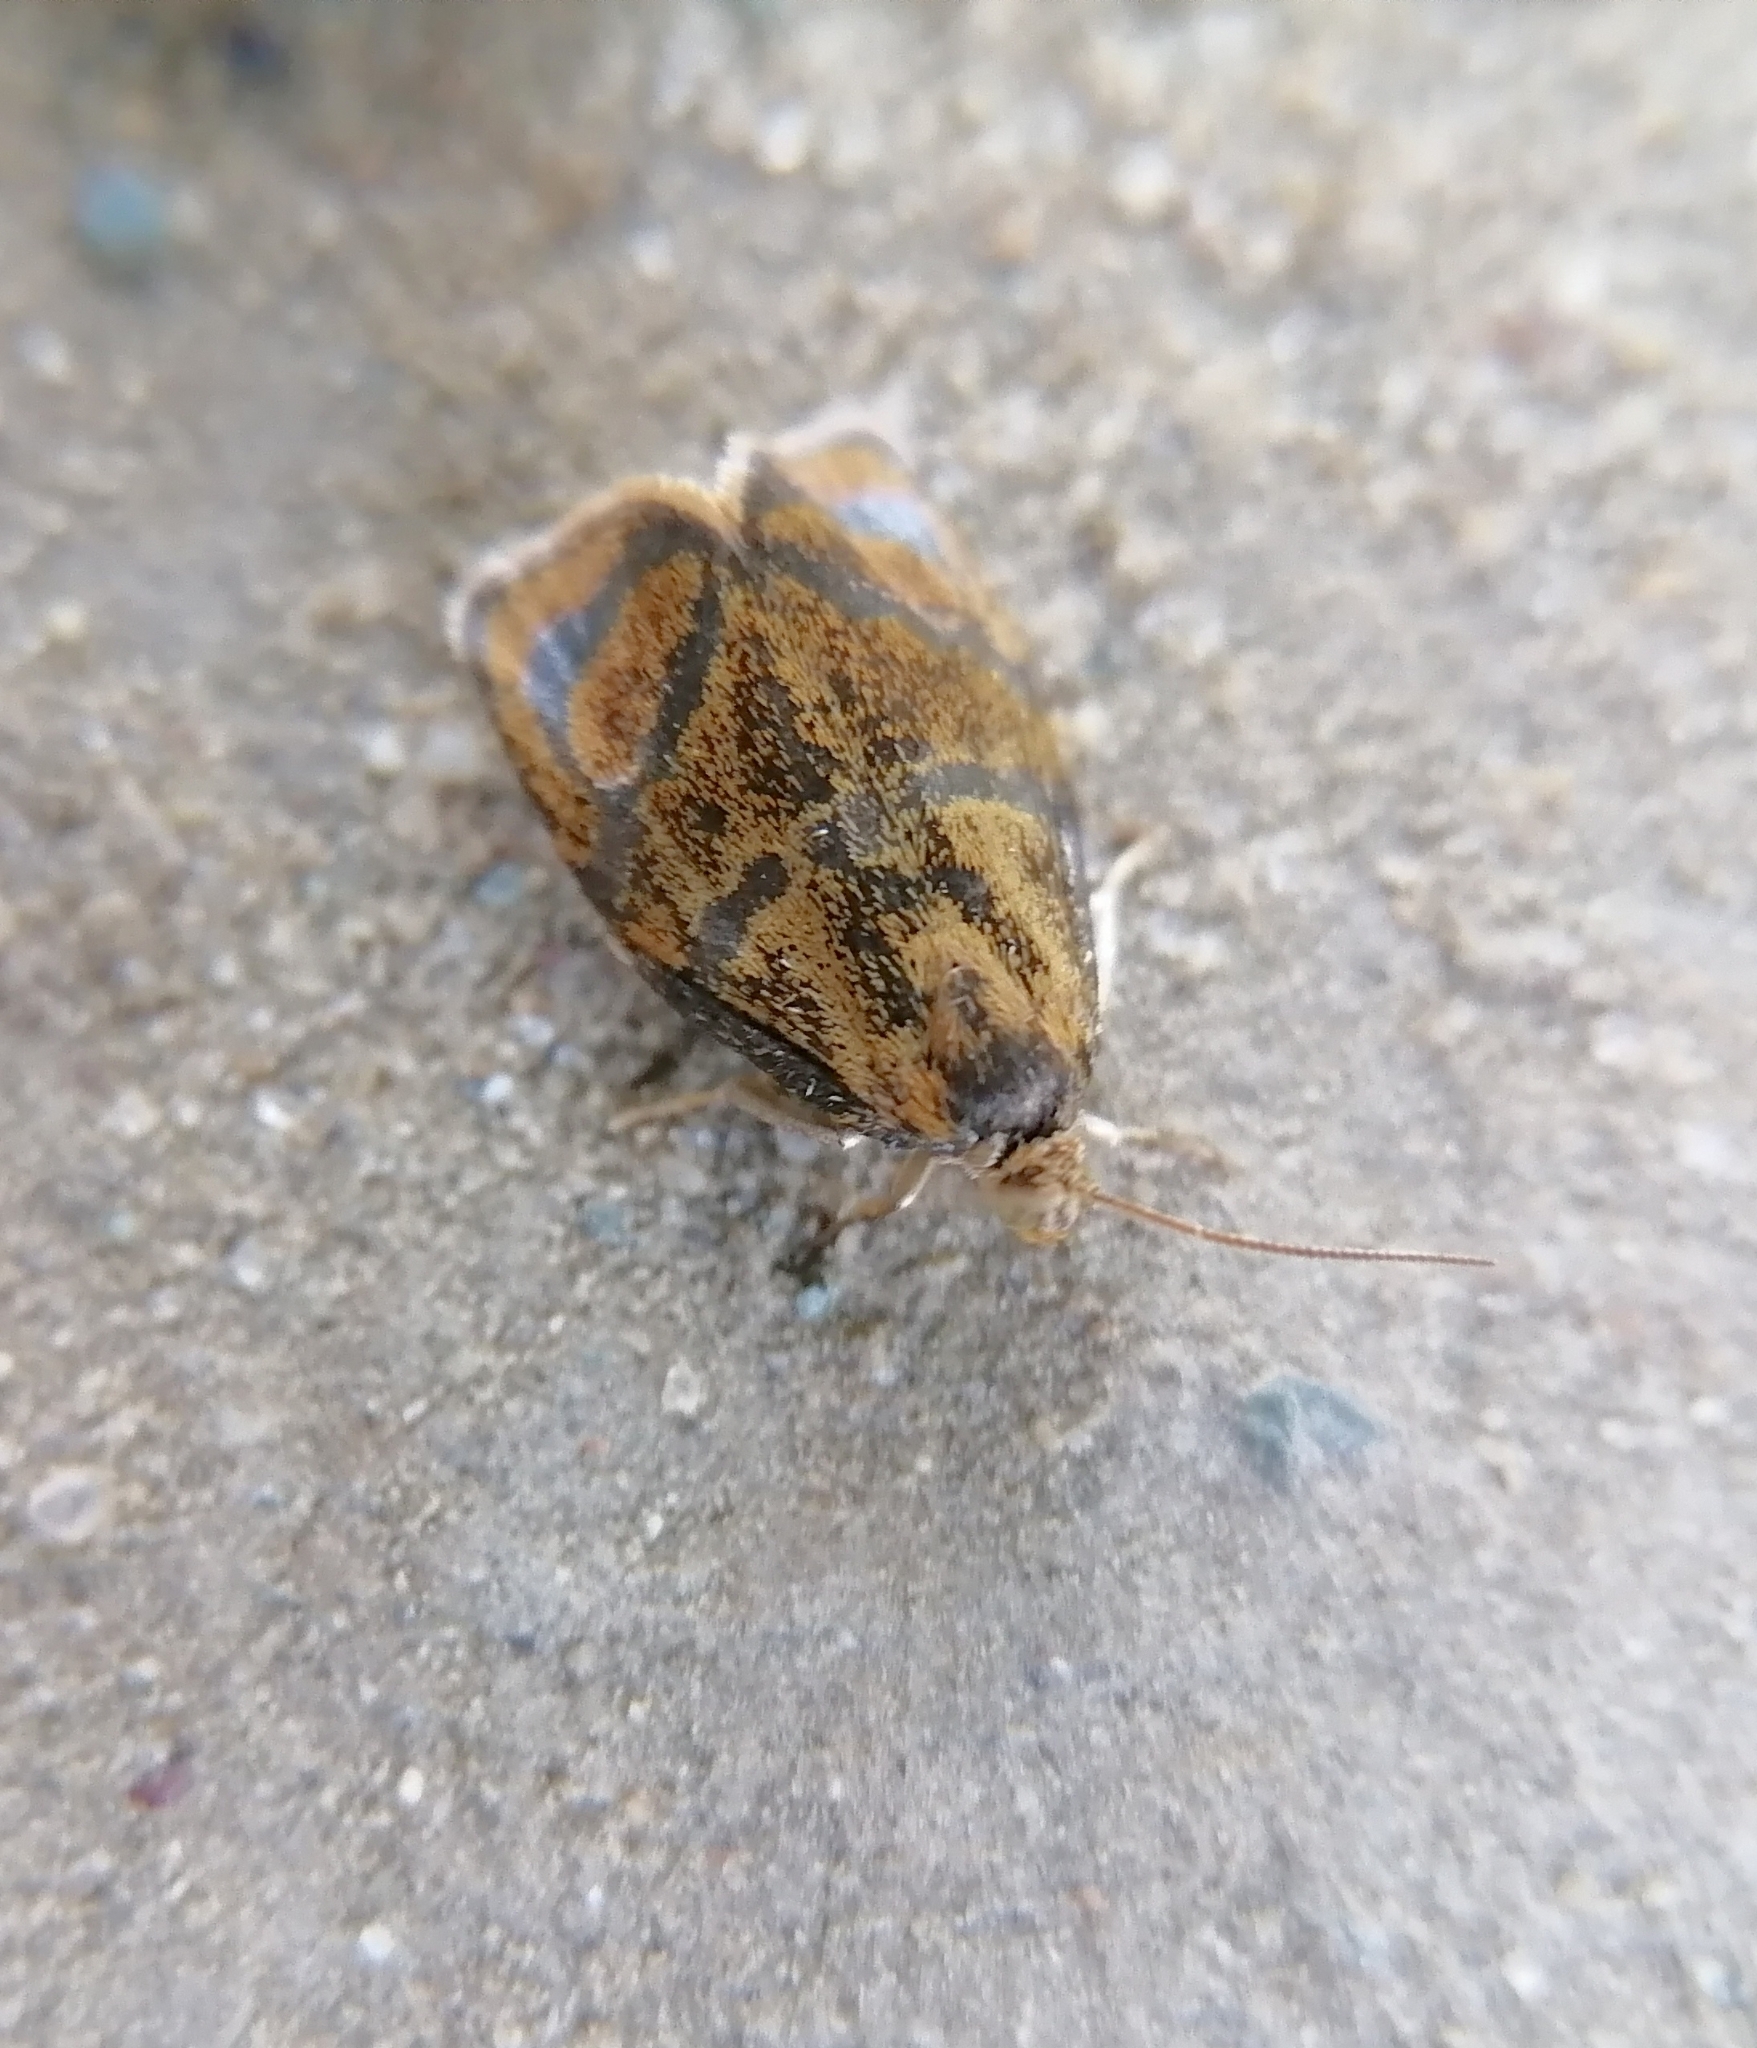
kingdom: Animalia
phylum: Arthropoda
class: Insecta
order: Lepidoptera
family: Tortricidae
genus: Ptycholoma
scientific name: Ptycholoma lecheana
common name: Leches twist moth
